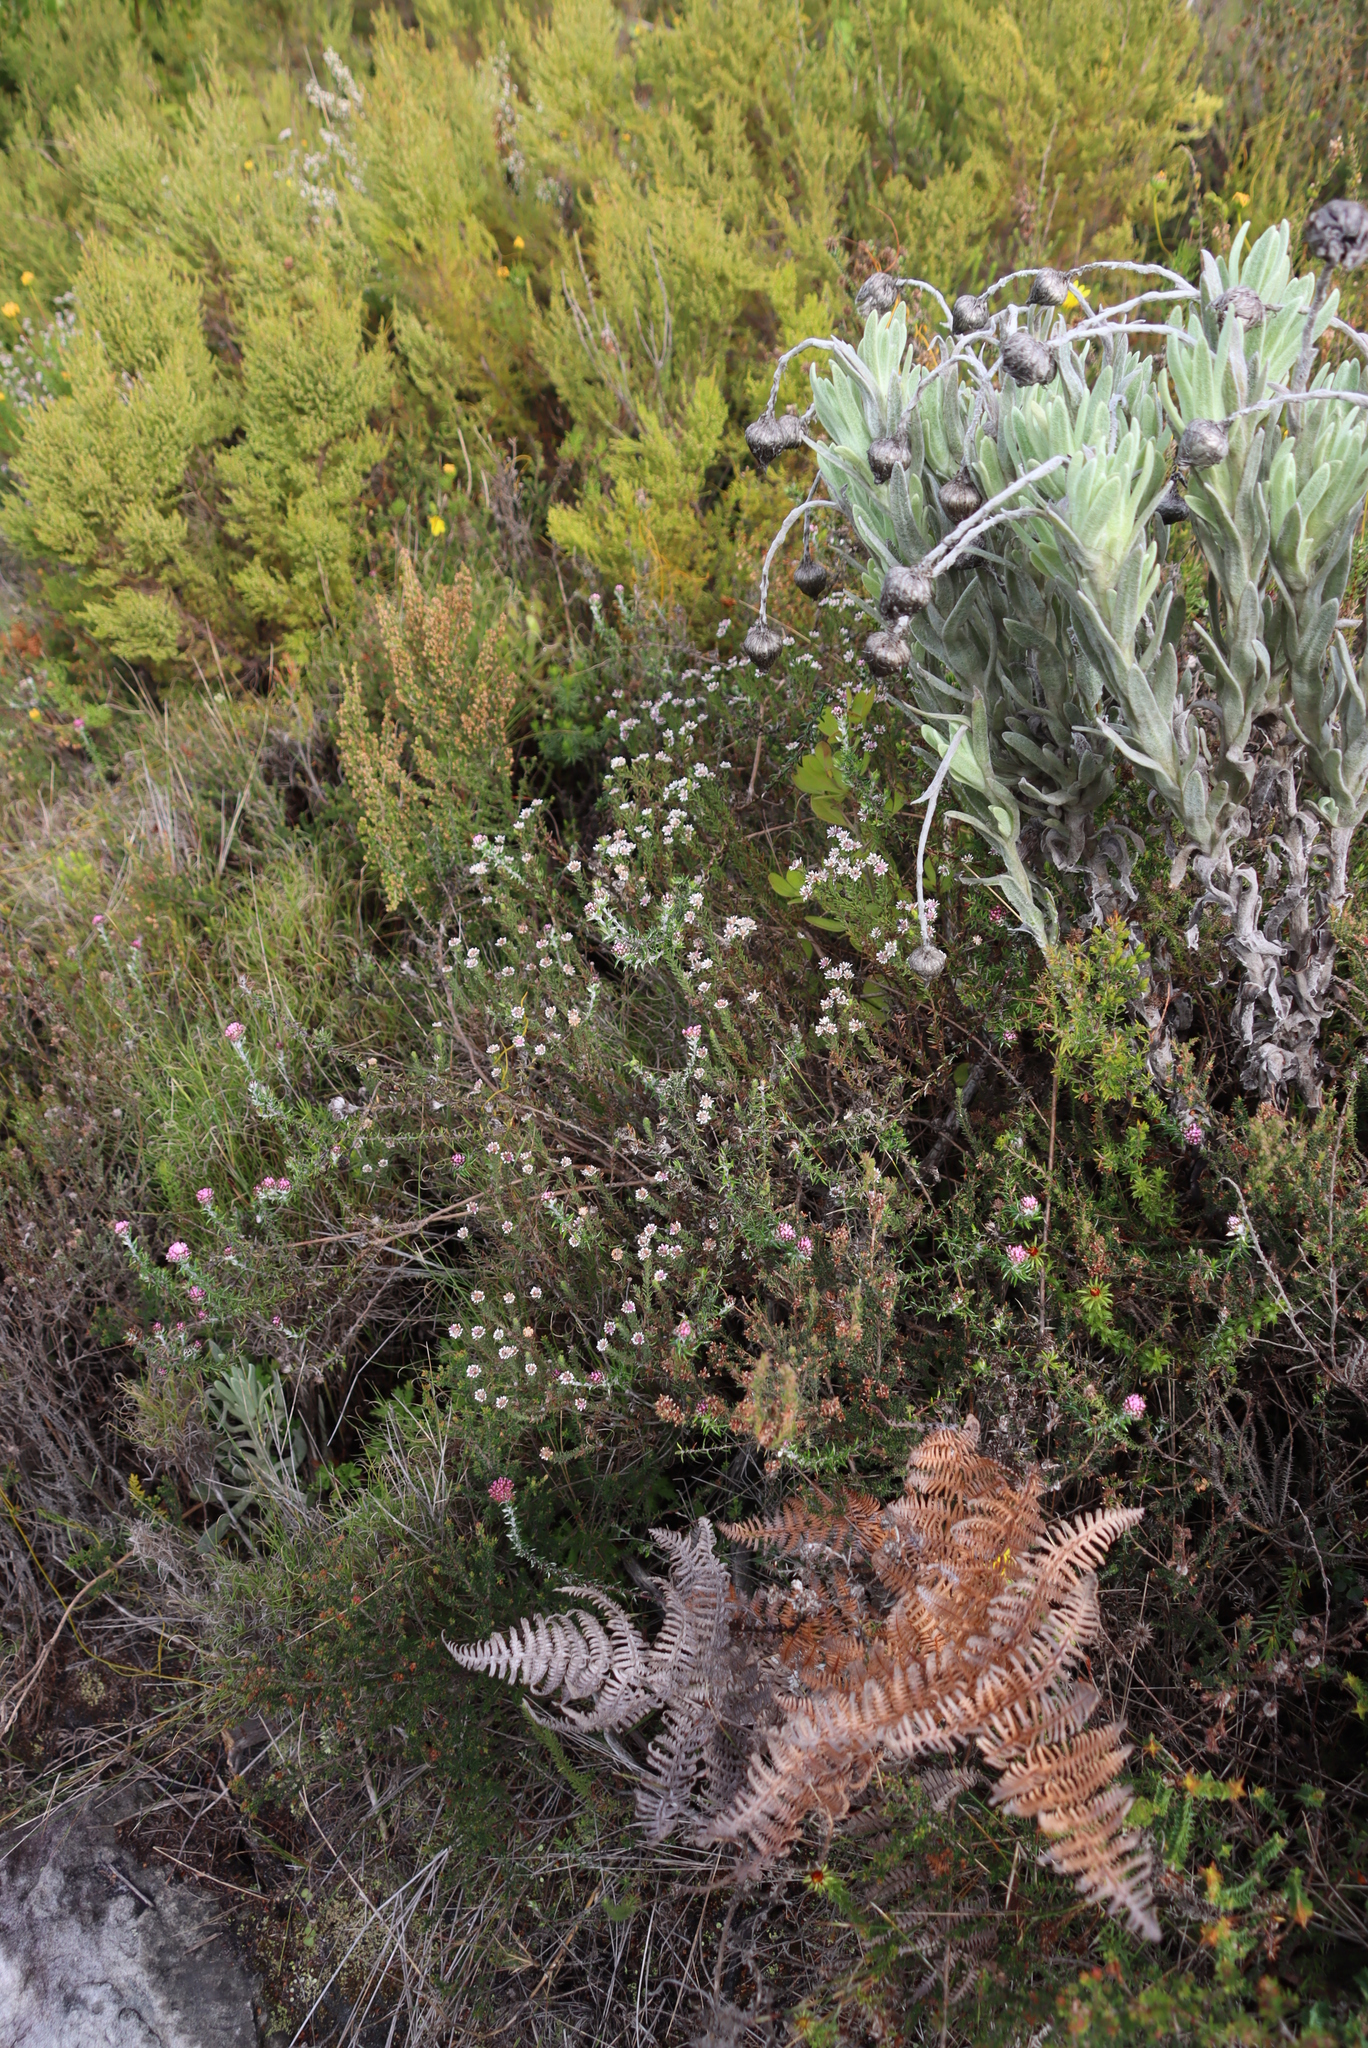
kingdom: Plantae
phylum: Tracheophyta
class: Polypodiopsida
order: Polypodiales
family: Dennstaedtiaceae
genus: Pteridium
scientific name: Pteridium aquilinum
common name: Bracken
